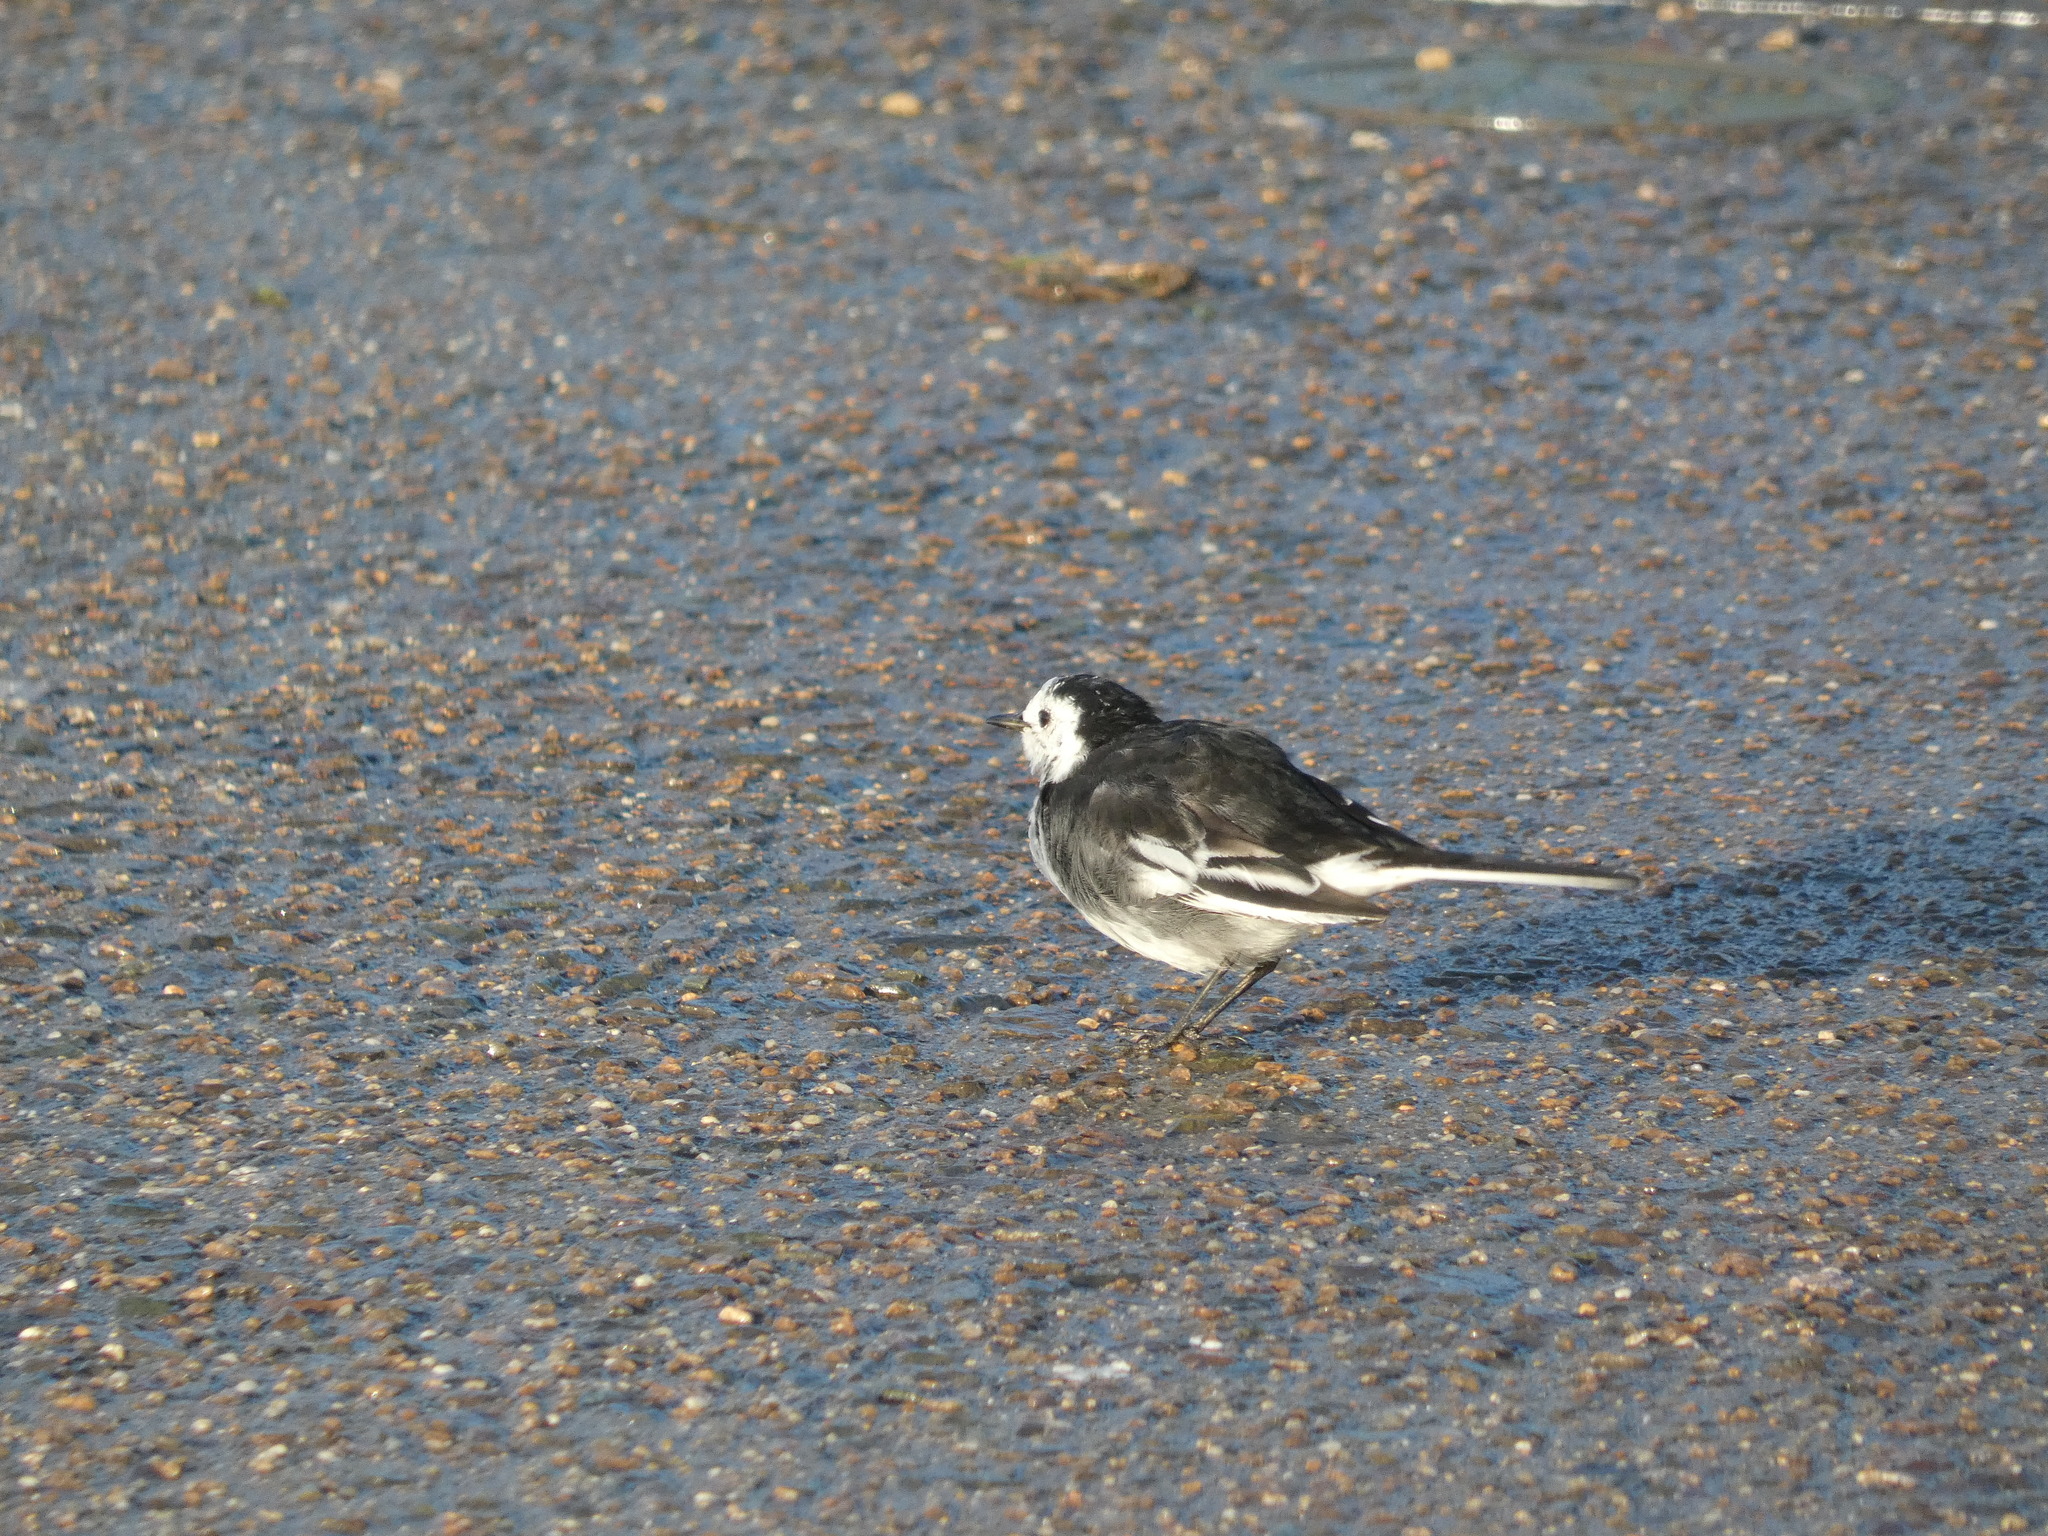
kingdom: Animalia
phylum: Chordata
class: Aves
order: Passeriformes
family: Motacillidae
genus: Motacilla
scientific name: Motacilla alba
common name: White wagtail
